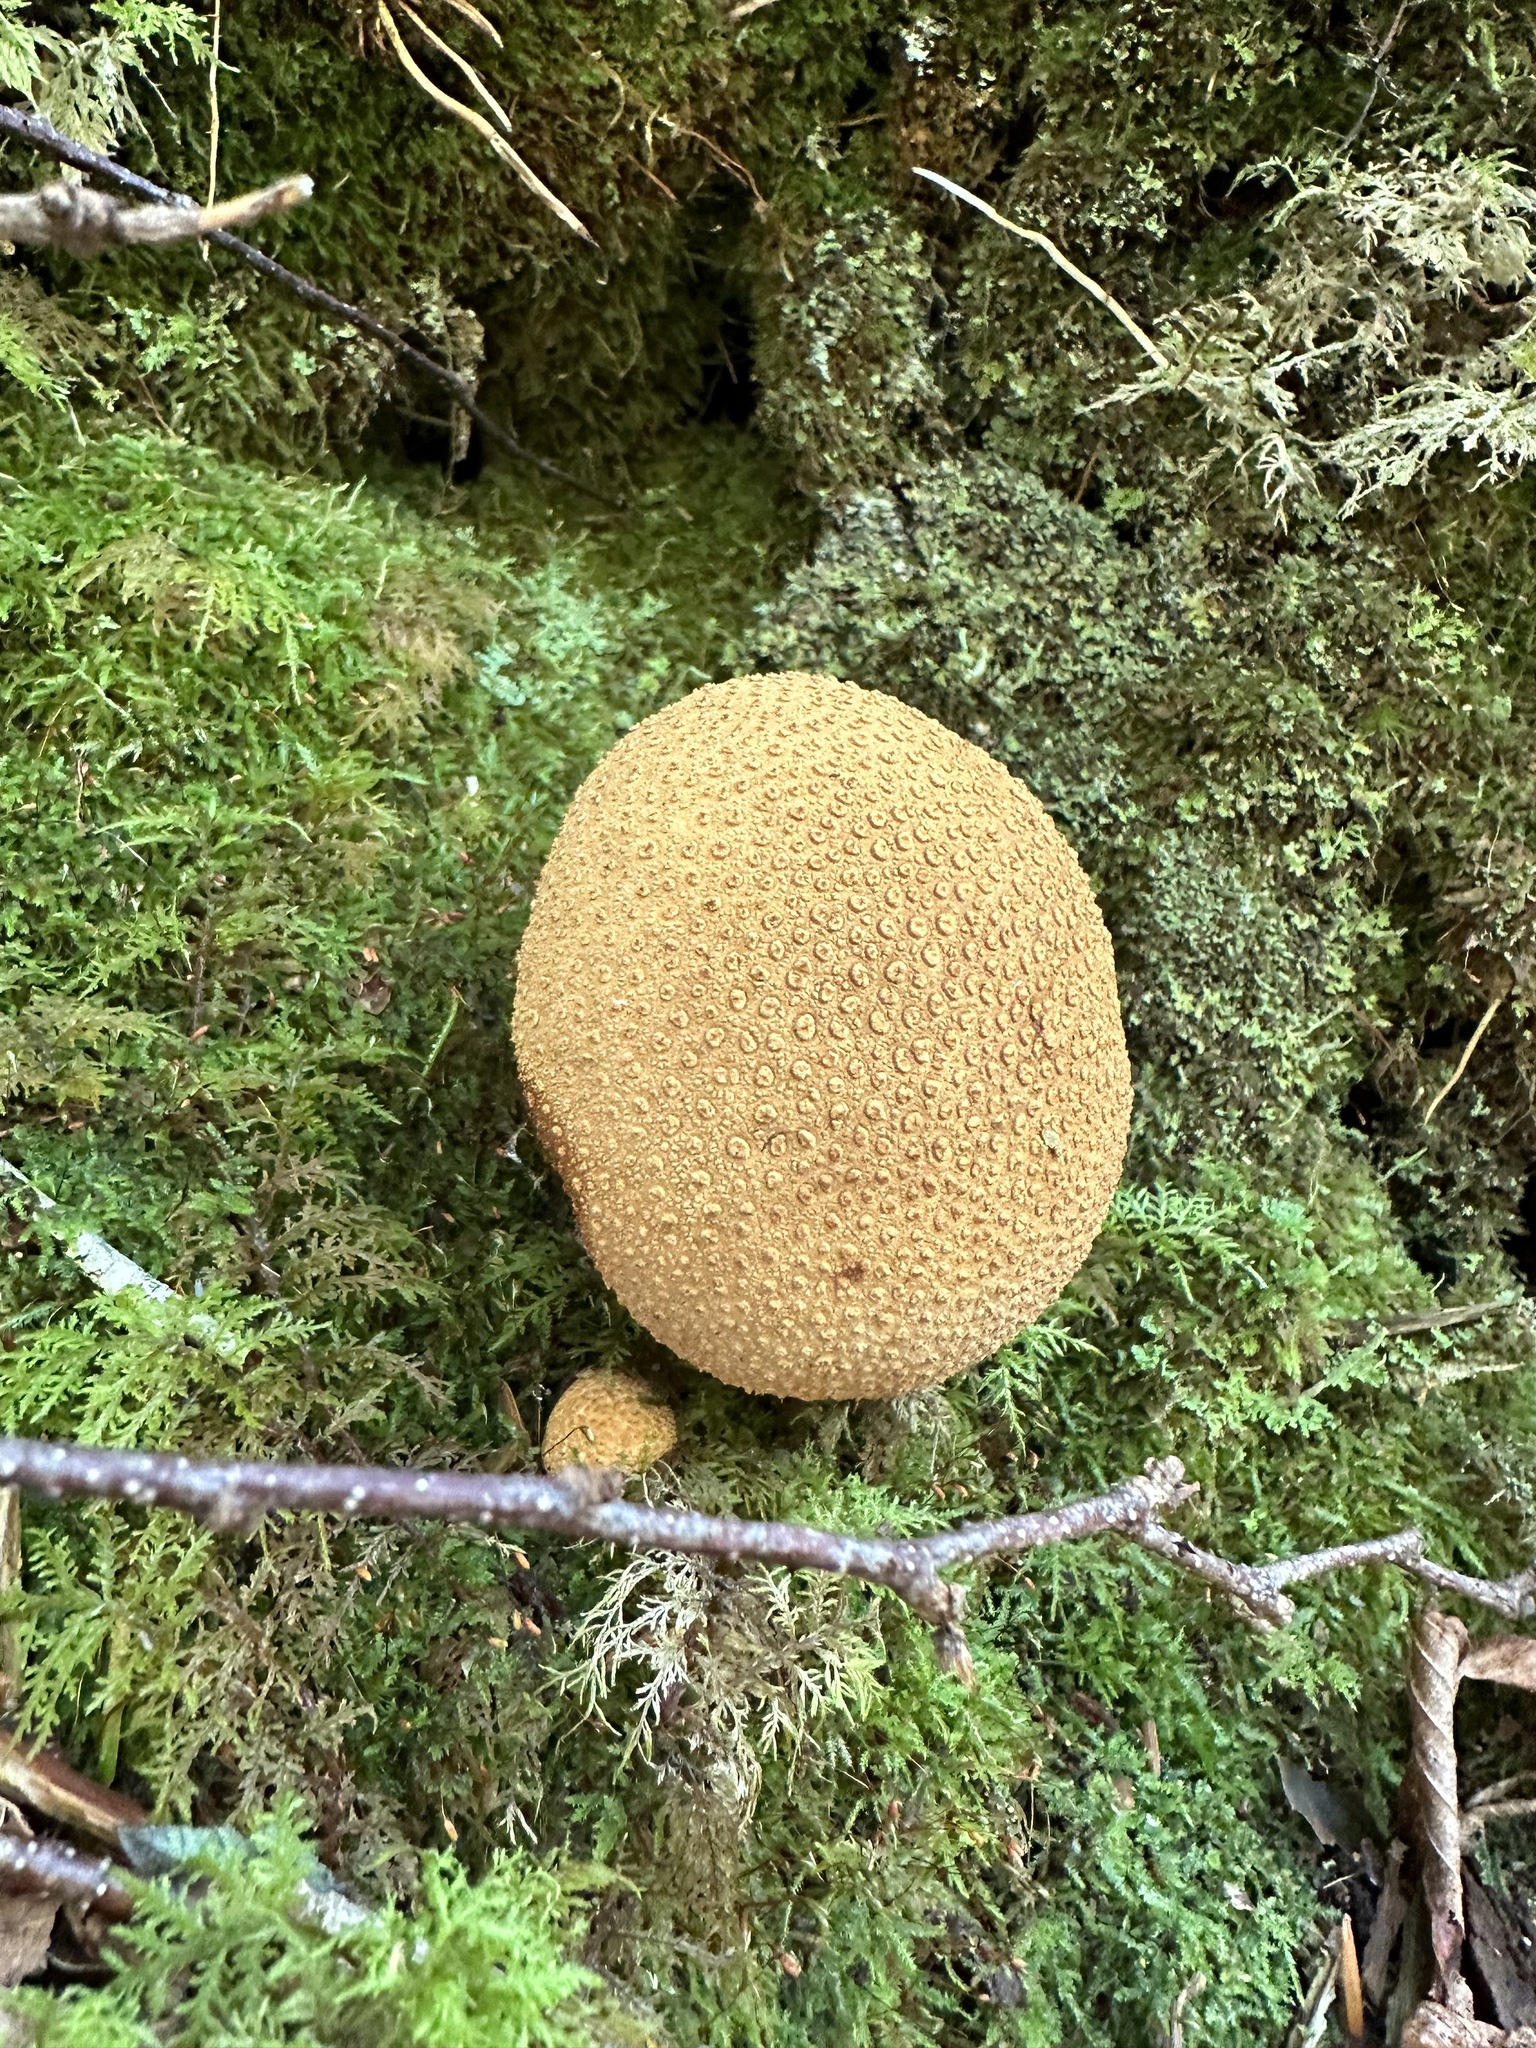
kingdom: Fungi
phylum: Basidiomycota
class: Agaricomycetes
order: Boletales
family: Sclerodermataceae
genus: Scleroderma
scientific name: Scleroderma citrinum
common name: Common earthball
